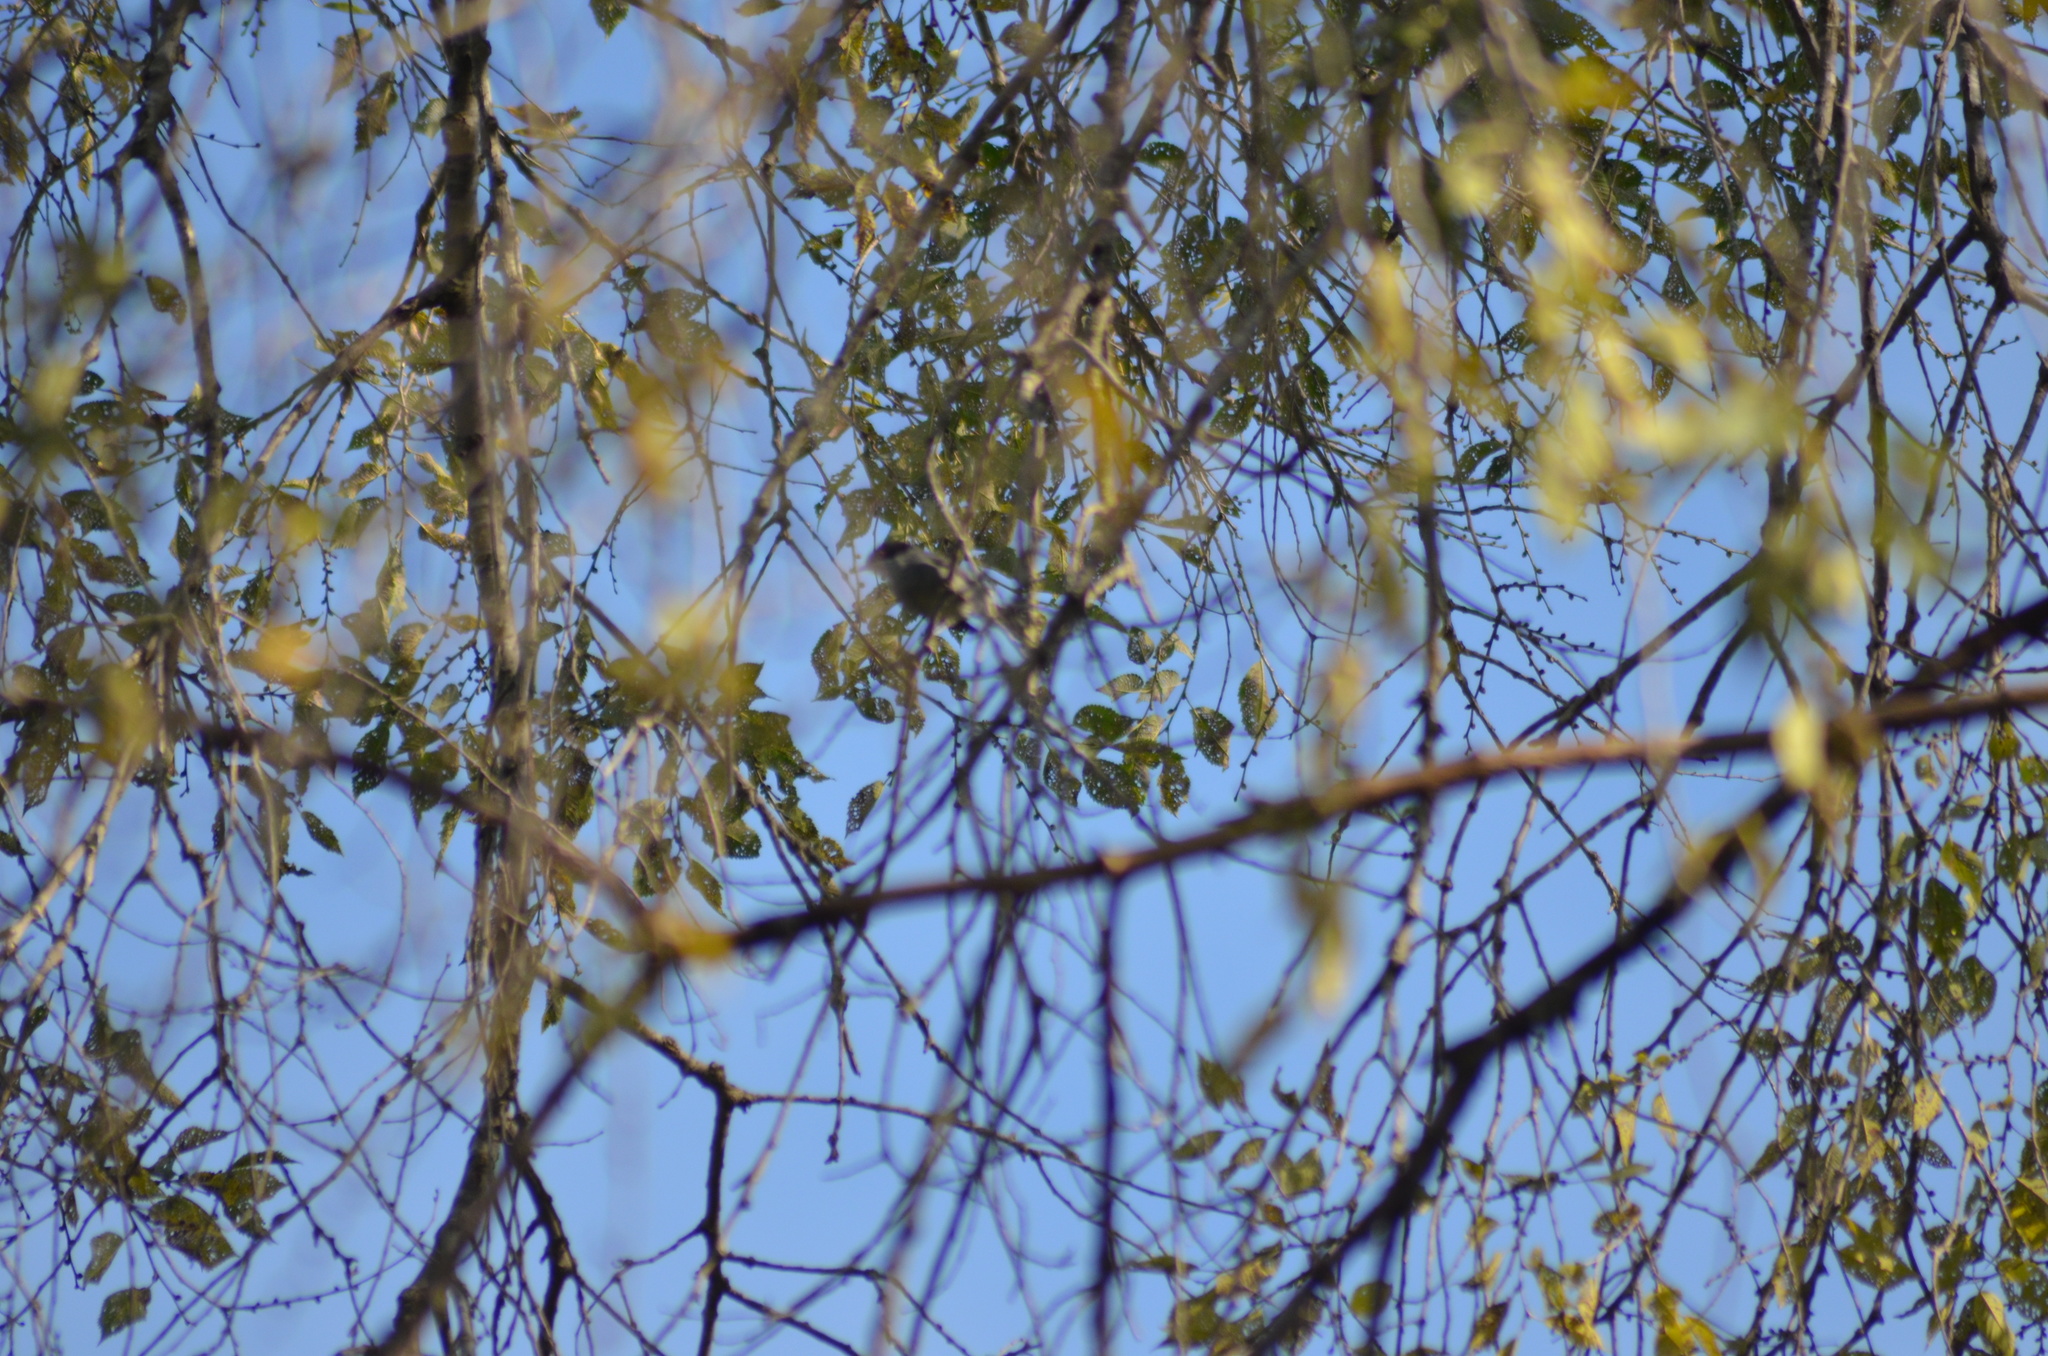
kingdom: Animalia
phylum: Chordata
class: Aves
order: Passeriformes
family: Sylviidae
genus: Curruca
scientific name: Curruca melanocephala
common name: Sardinian warbler
